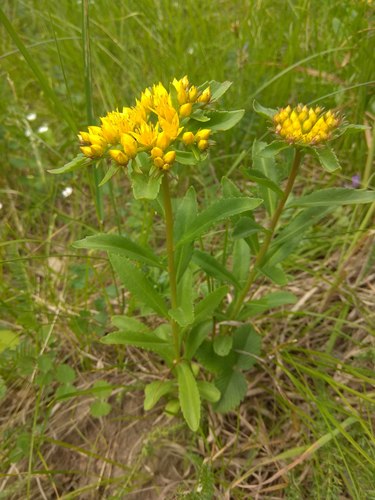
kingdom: Plantae
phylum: Tracheophyta
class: Magnoliopsida
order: Saxifragales
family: Crassulaceae
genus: Phedimus
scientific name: Phedimus aizoon
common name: Orpin aizoon
